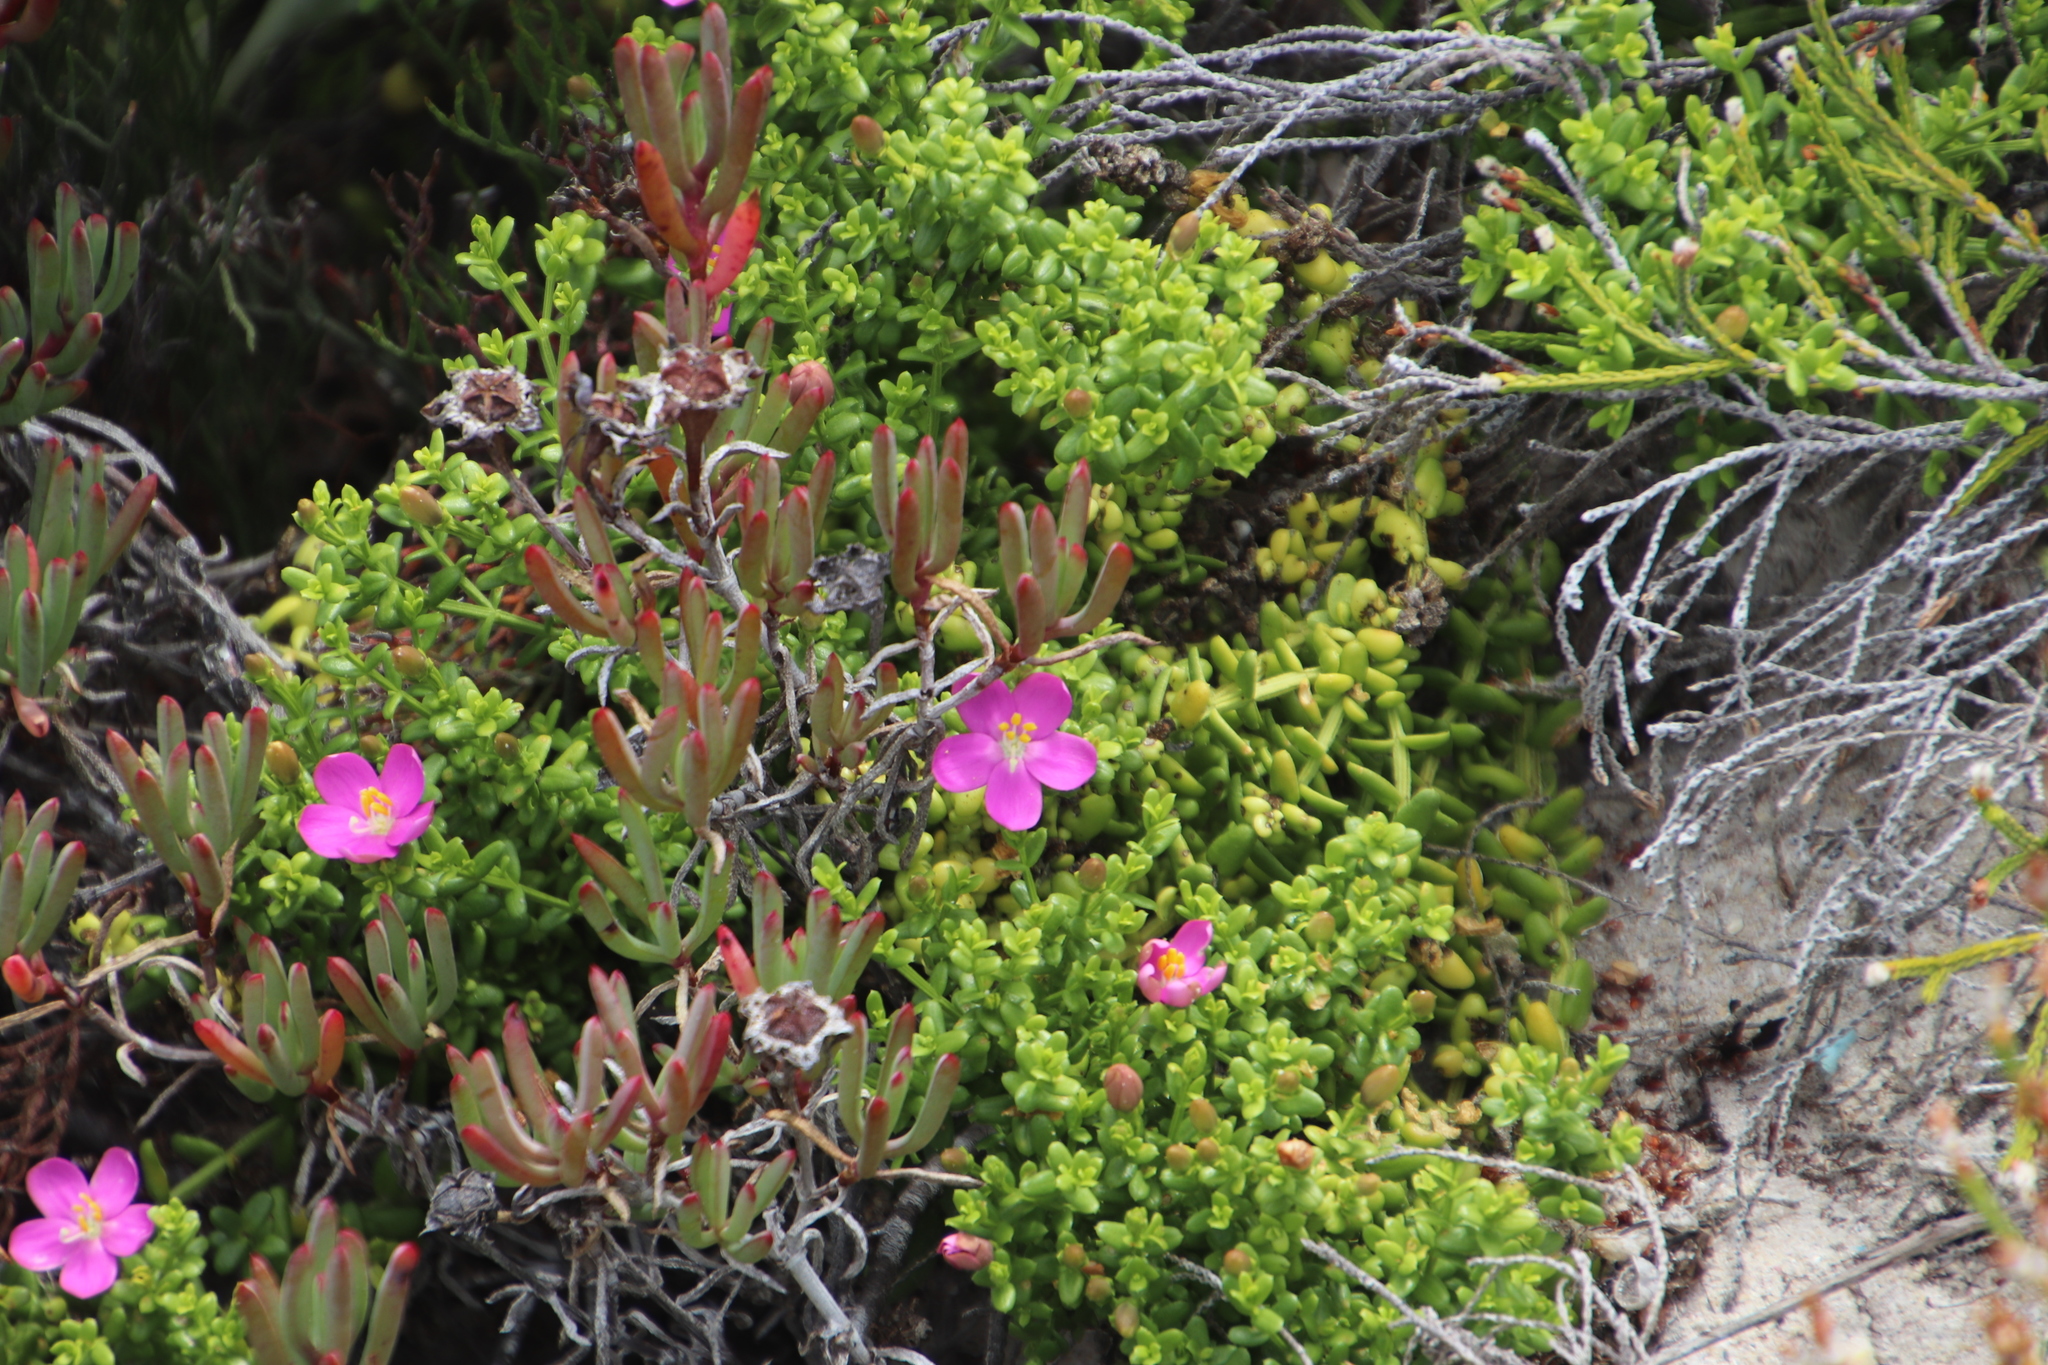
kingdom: Plantae
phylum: Tracheophyta
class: Magnoliopsida
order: Gentianales
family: Gentianaceae
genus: Chironia
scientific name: Chironia baccifera
